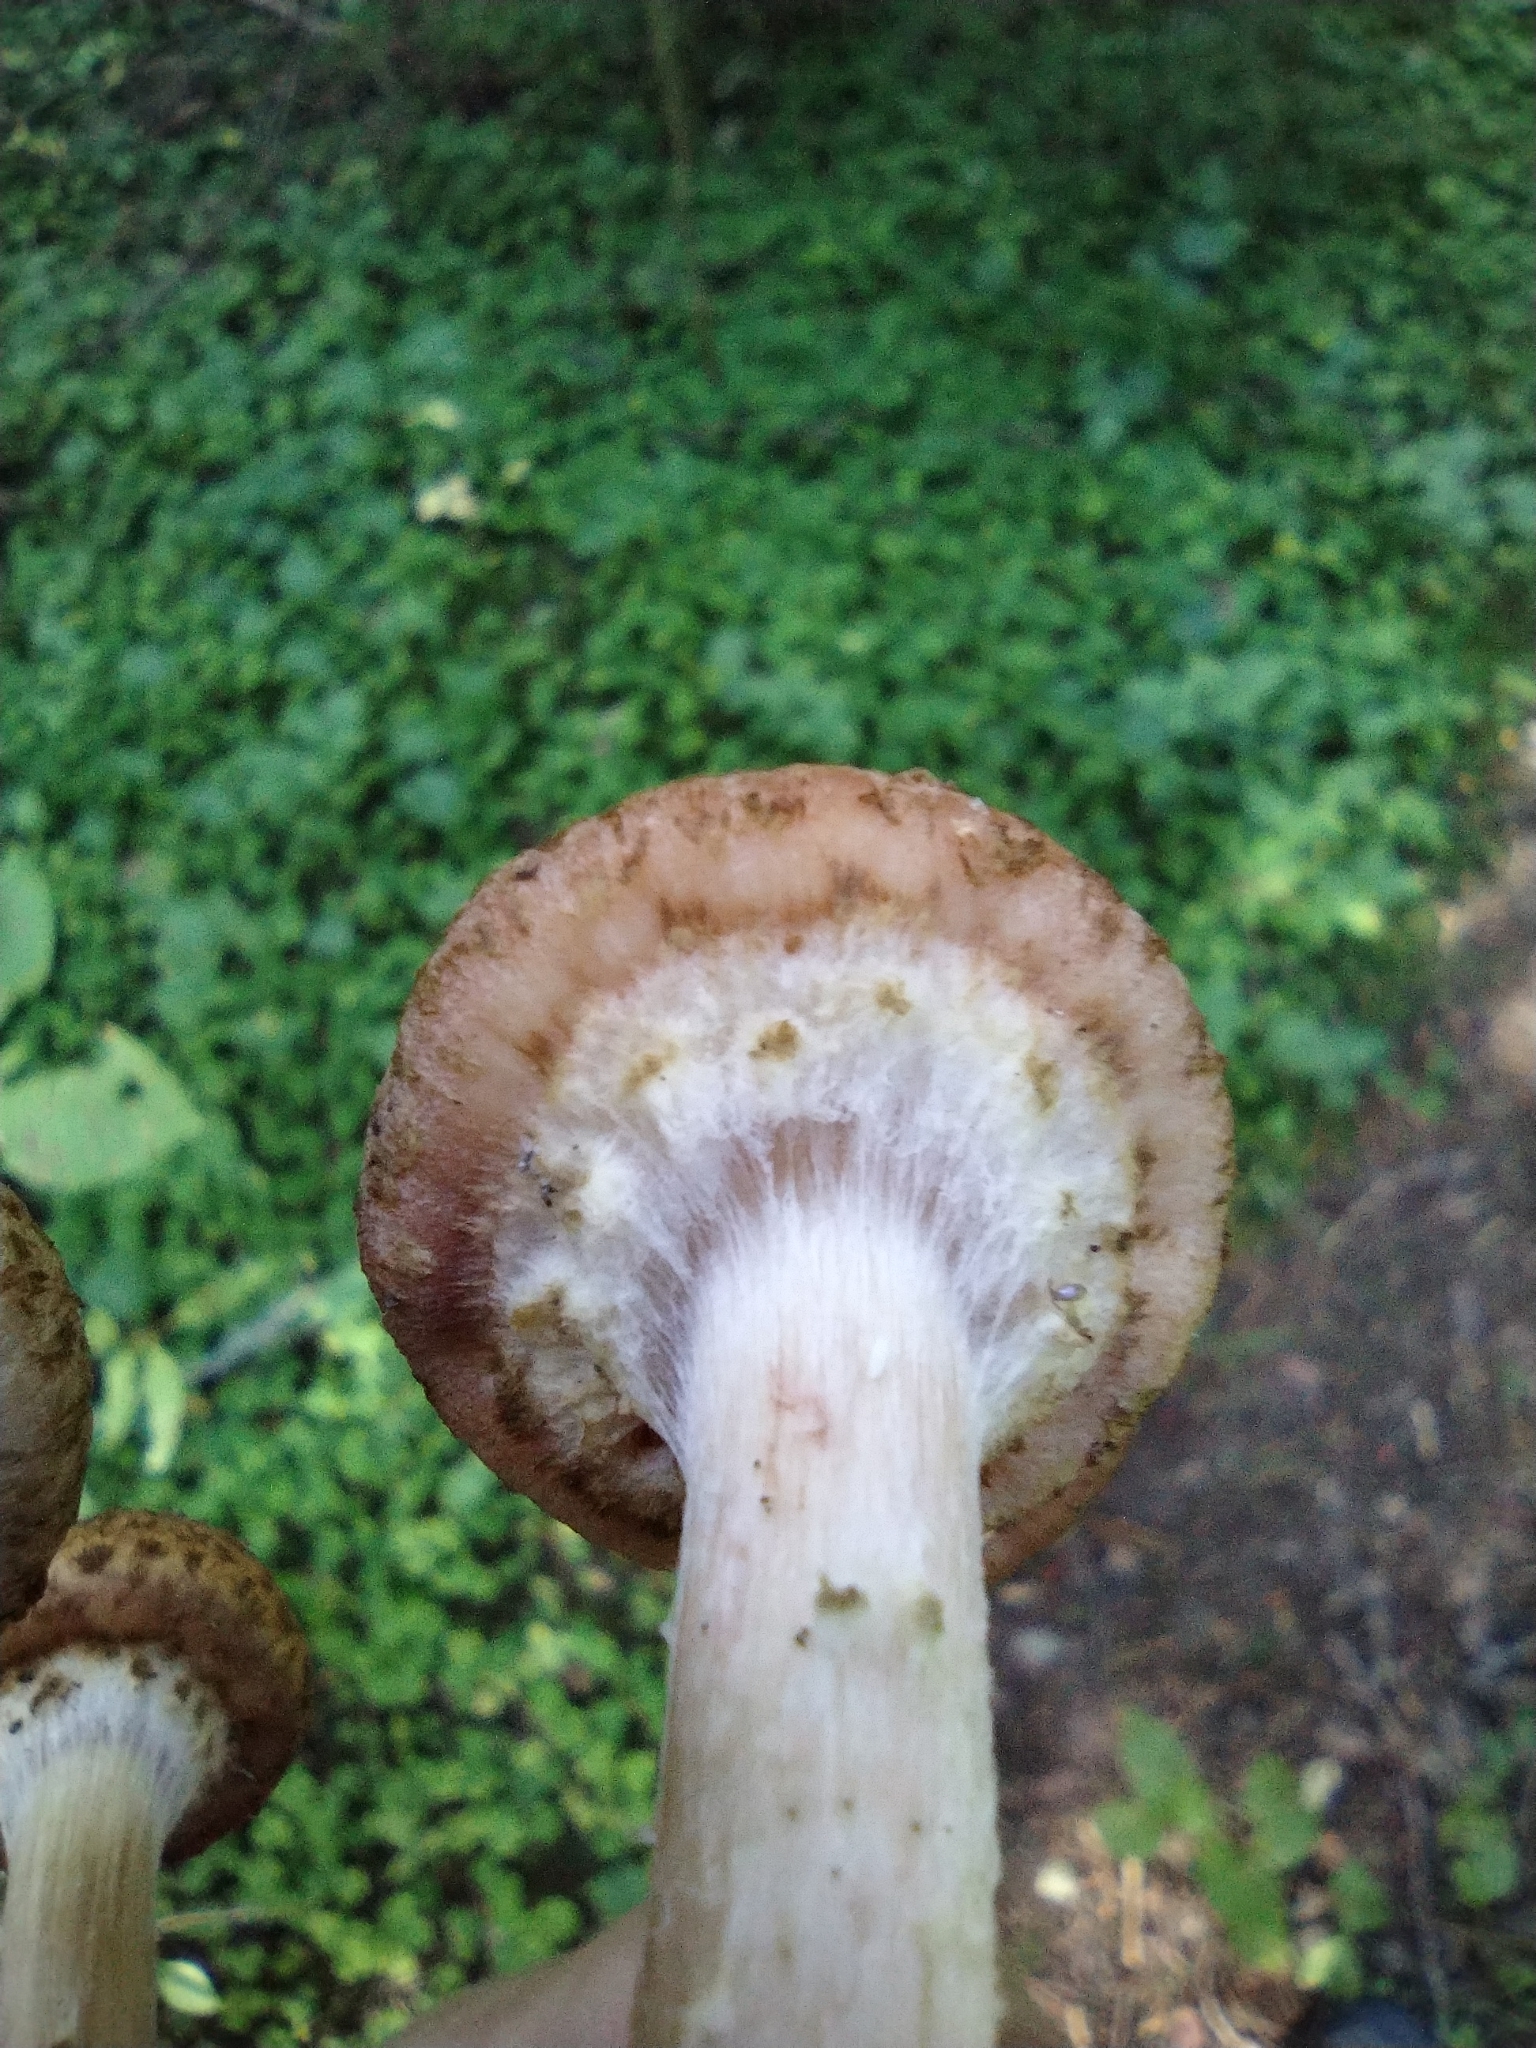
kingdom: Fungi
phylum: Basidiomycota
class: Agaricomycetes
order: Agaricales
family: Physalacriaceae
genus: Armillaria
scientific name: Armillaria borealis
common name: Northern honey fungus
